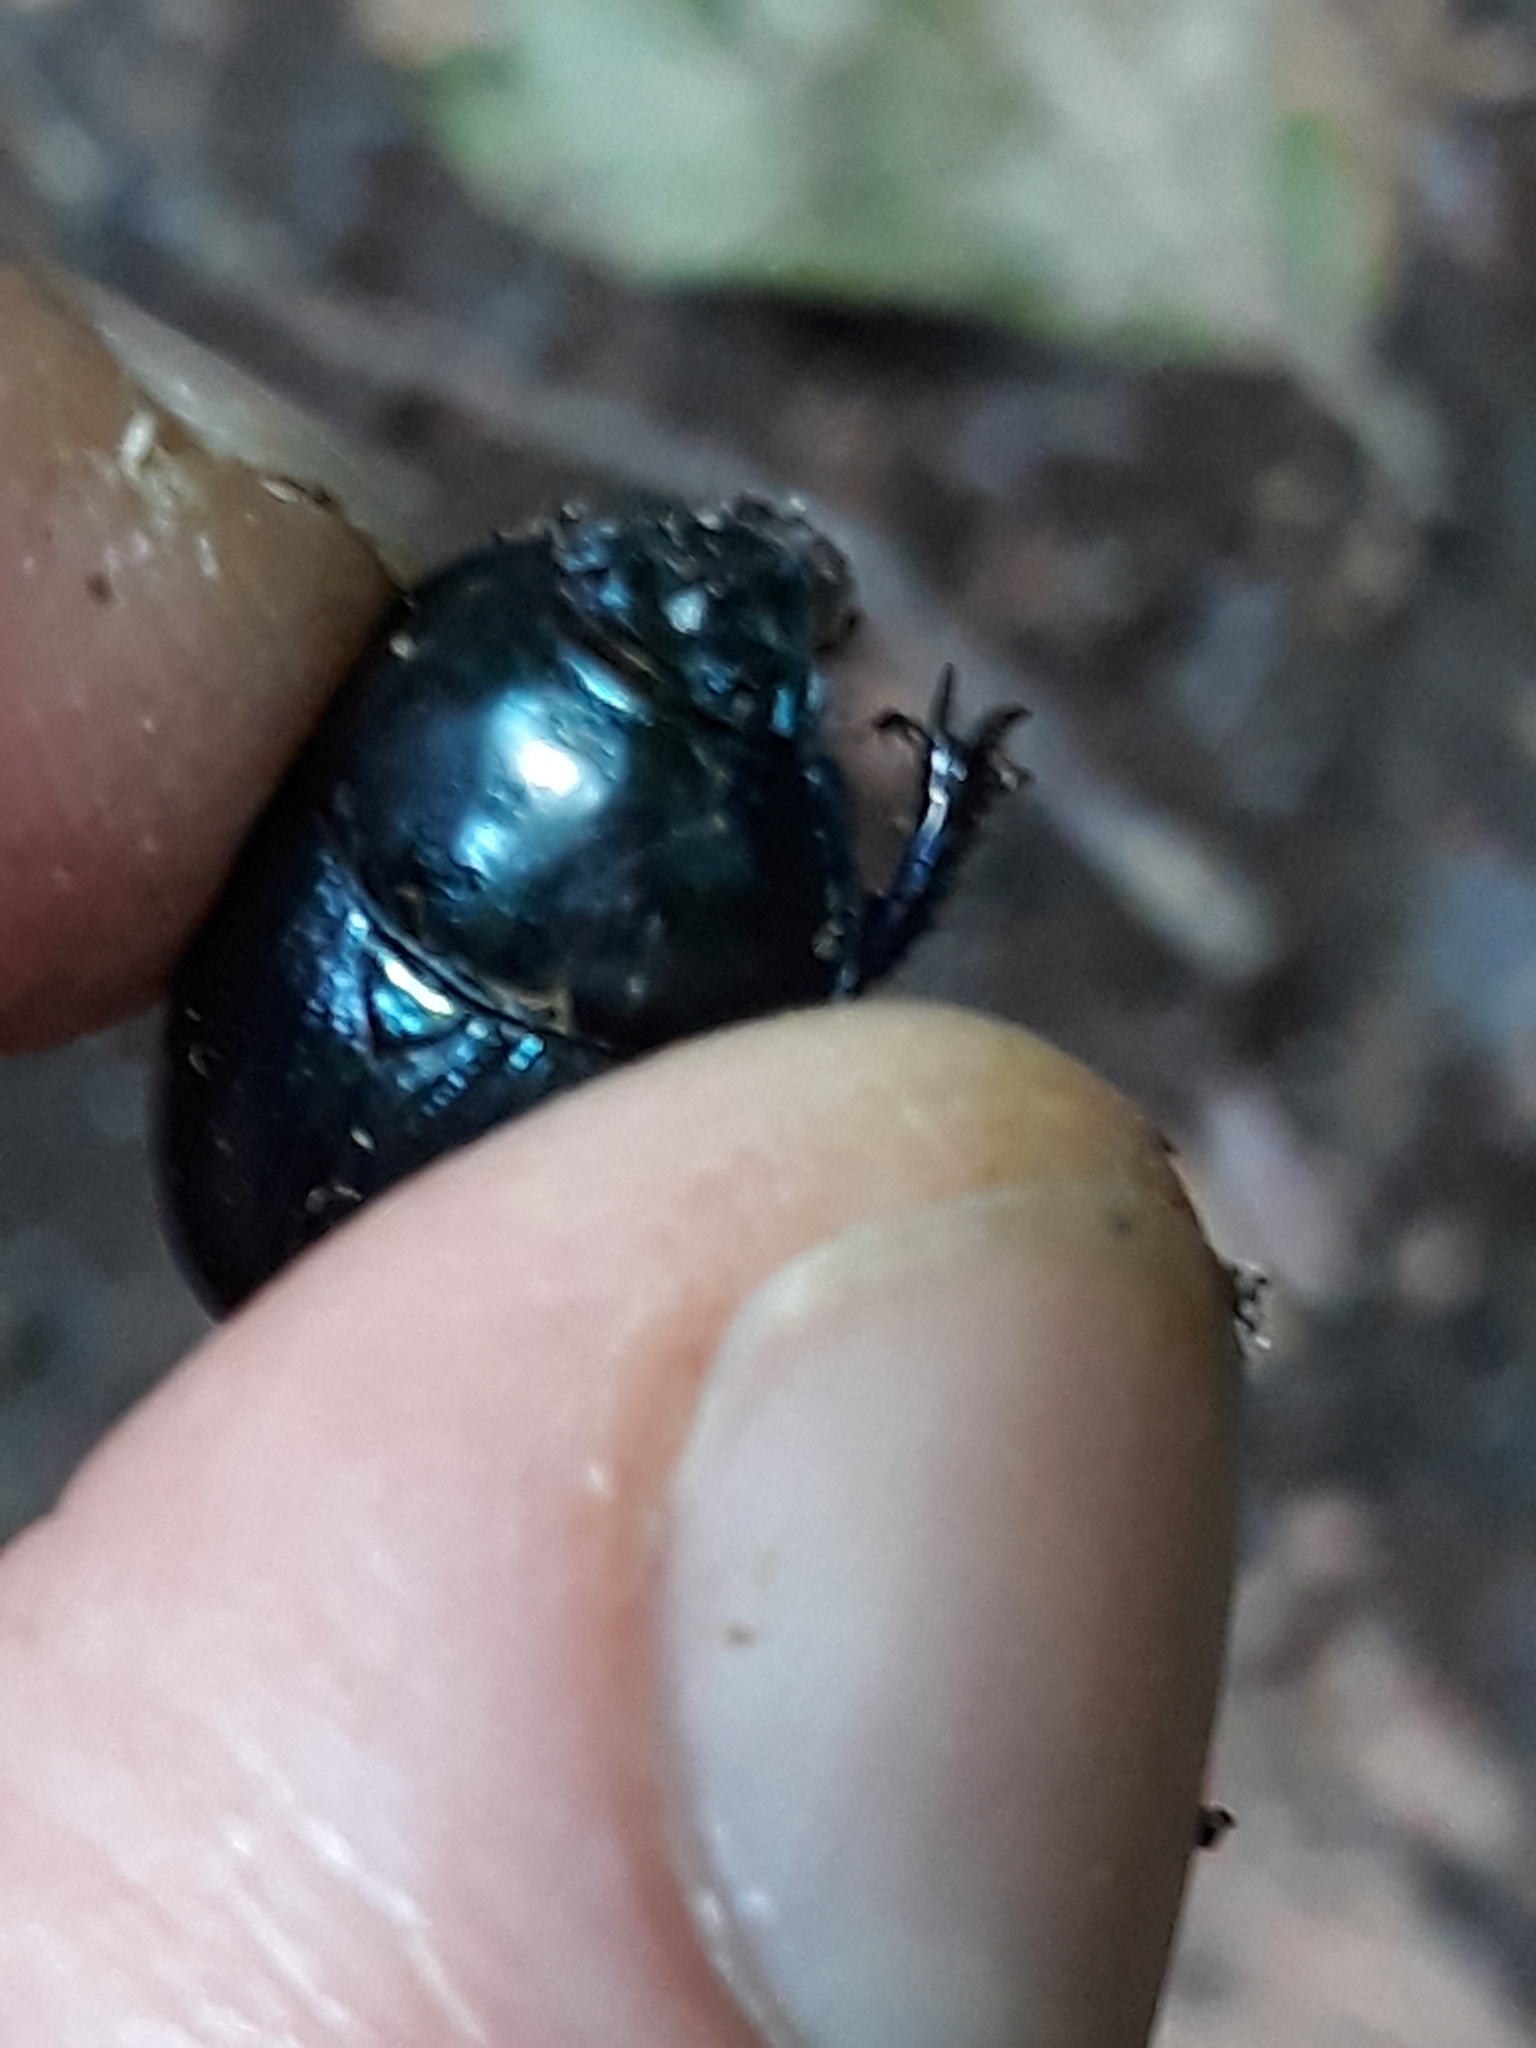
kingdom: Animalia
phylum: Arthropoda
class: Insecta
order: Coleoptera
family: Geotrupidae
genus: Anoplotrupes
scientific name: Anoplotrupes stercorosus
